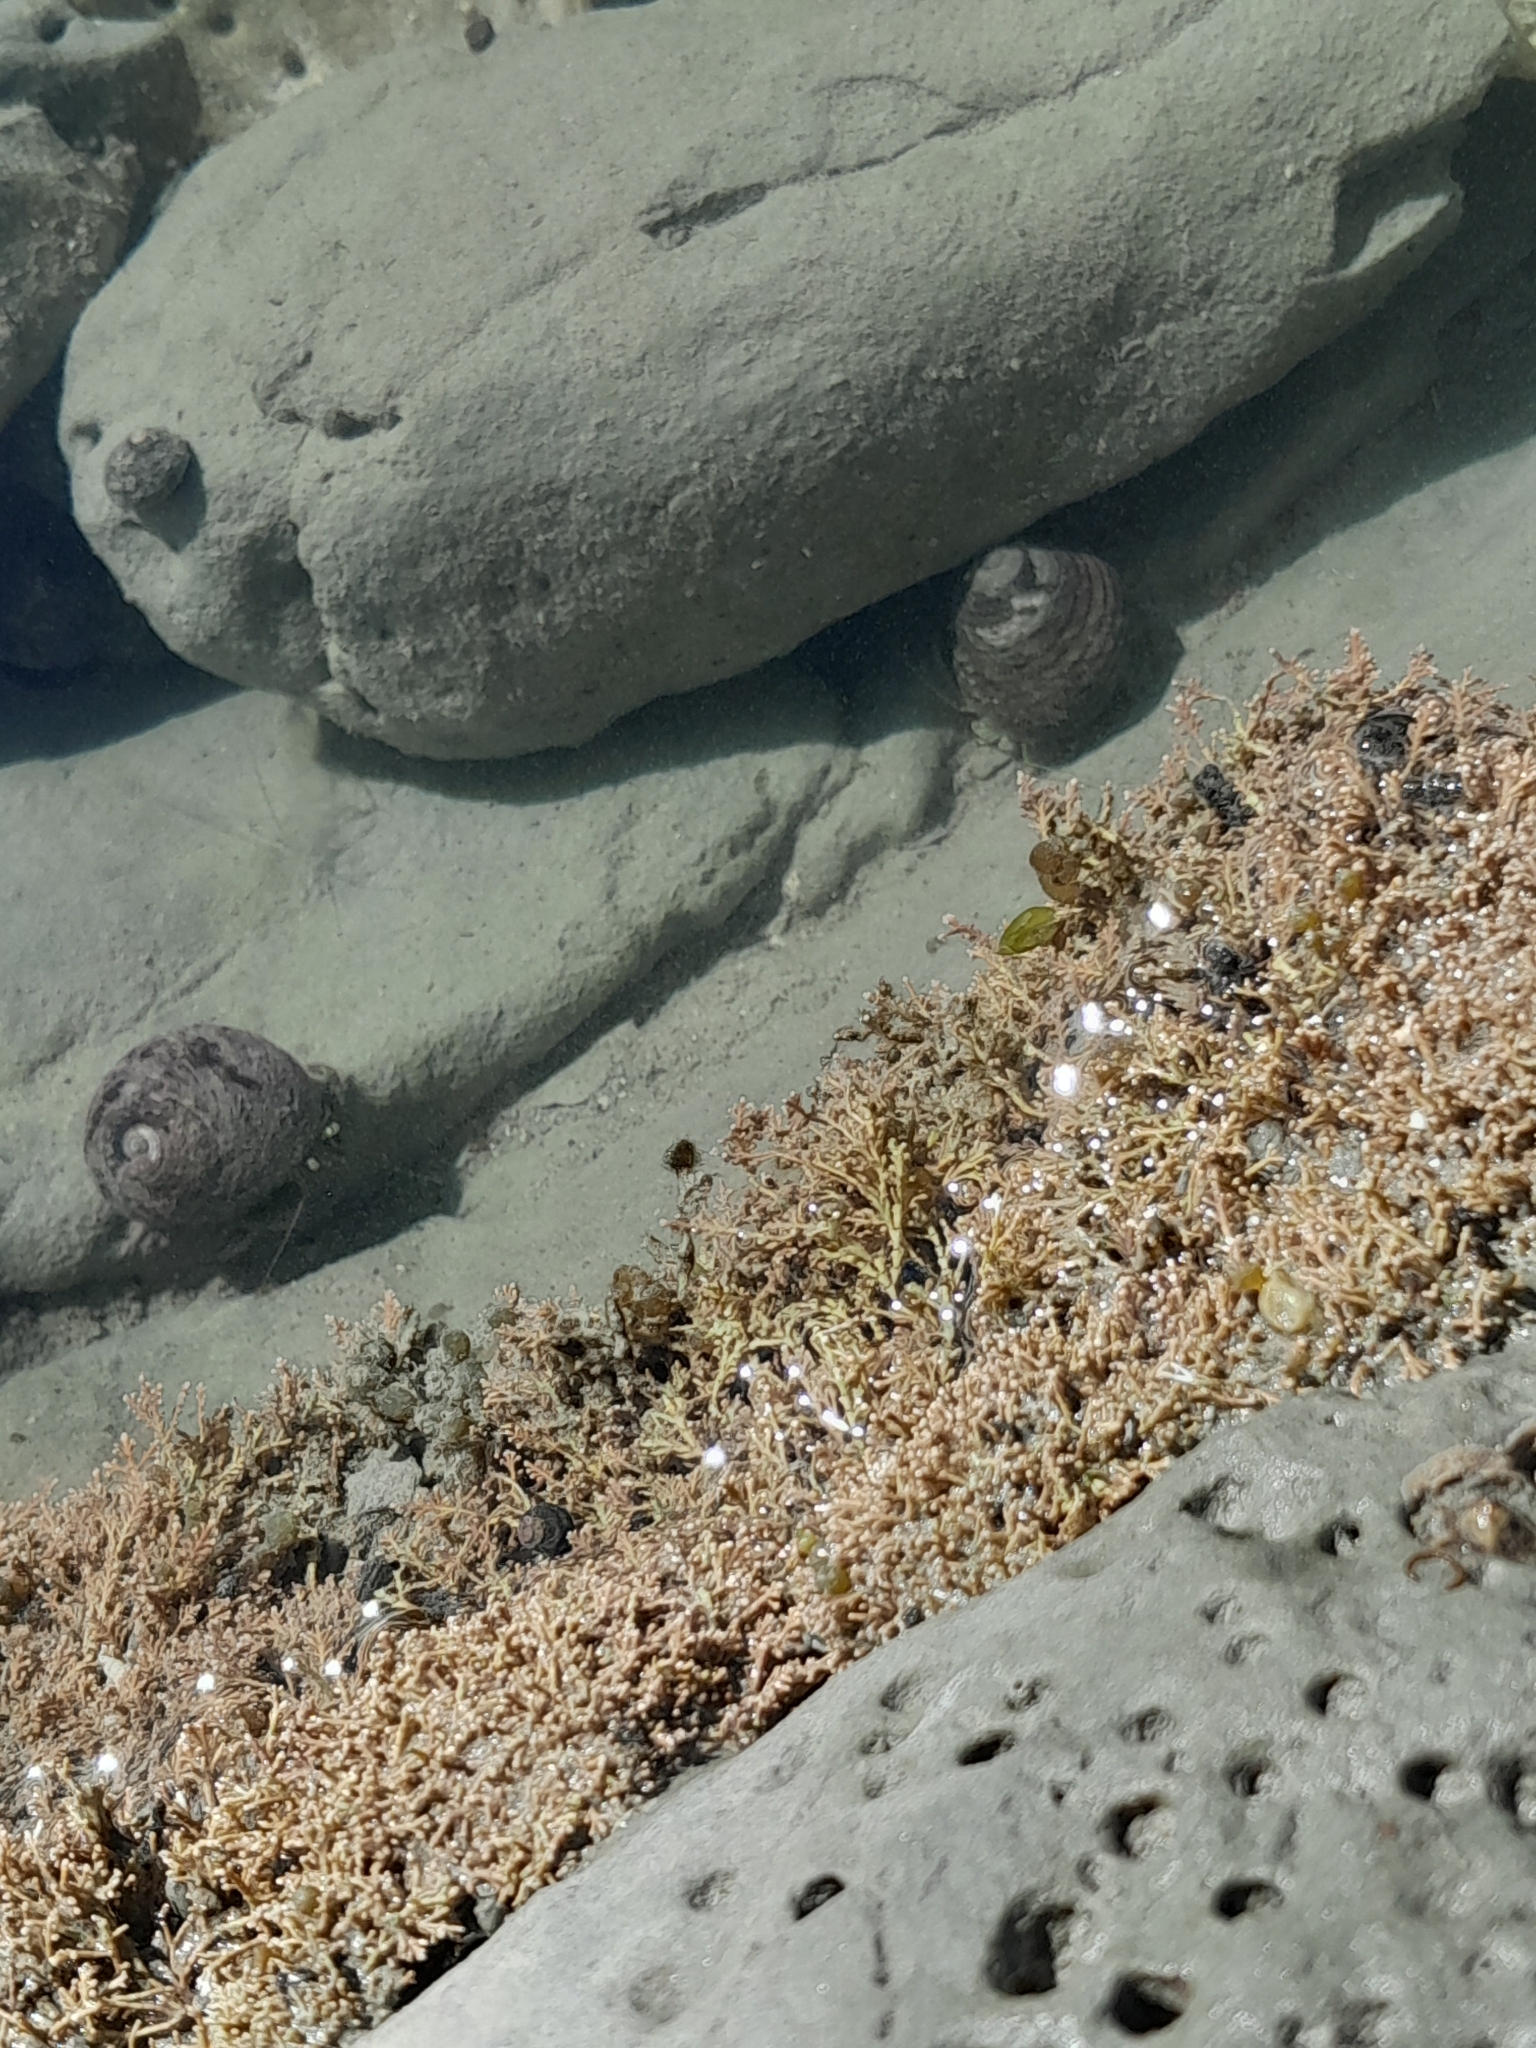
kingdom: Animalia
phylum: Arthropoda
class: Malacostraca
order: Decapoda
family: Paguridae
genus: Pagurus
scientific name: Pagurus novizealandiae
